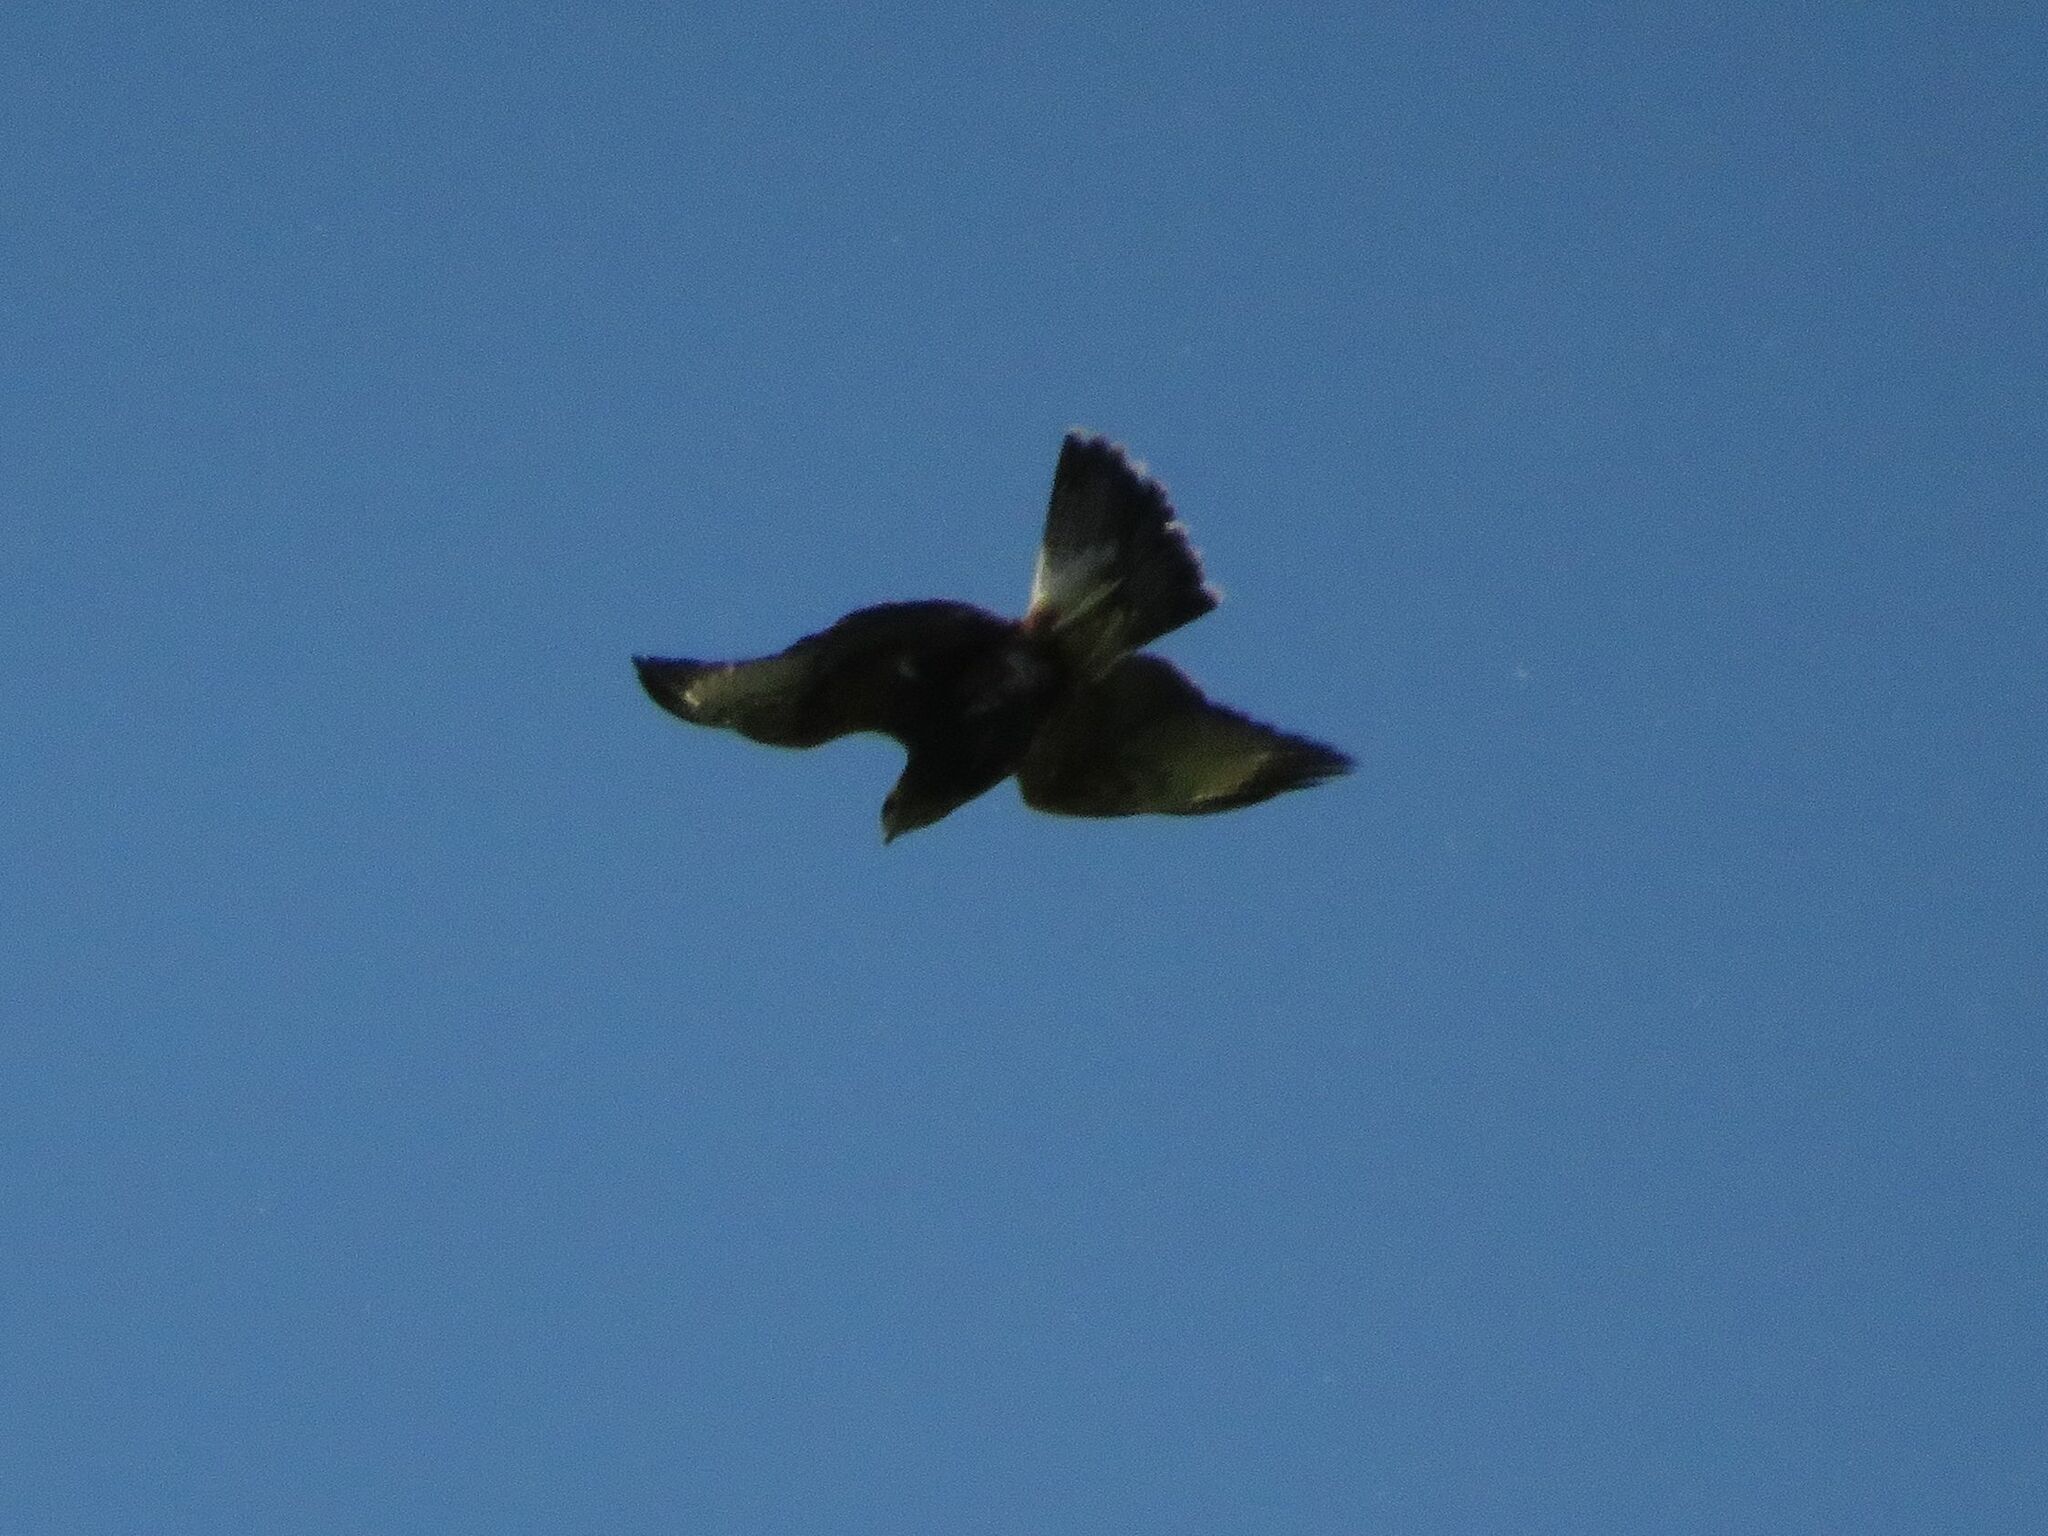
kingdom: Animalia
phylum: Chordata
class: Aves
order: Accipitriformes
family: Accipitridae
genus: Parabuteo
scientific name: Parabuteo unicinctus
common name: Harris's hawk
